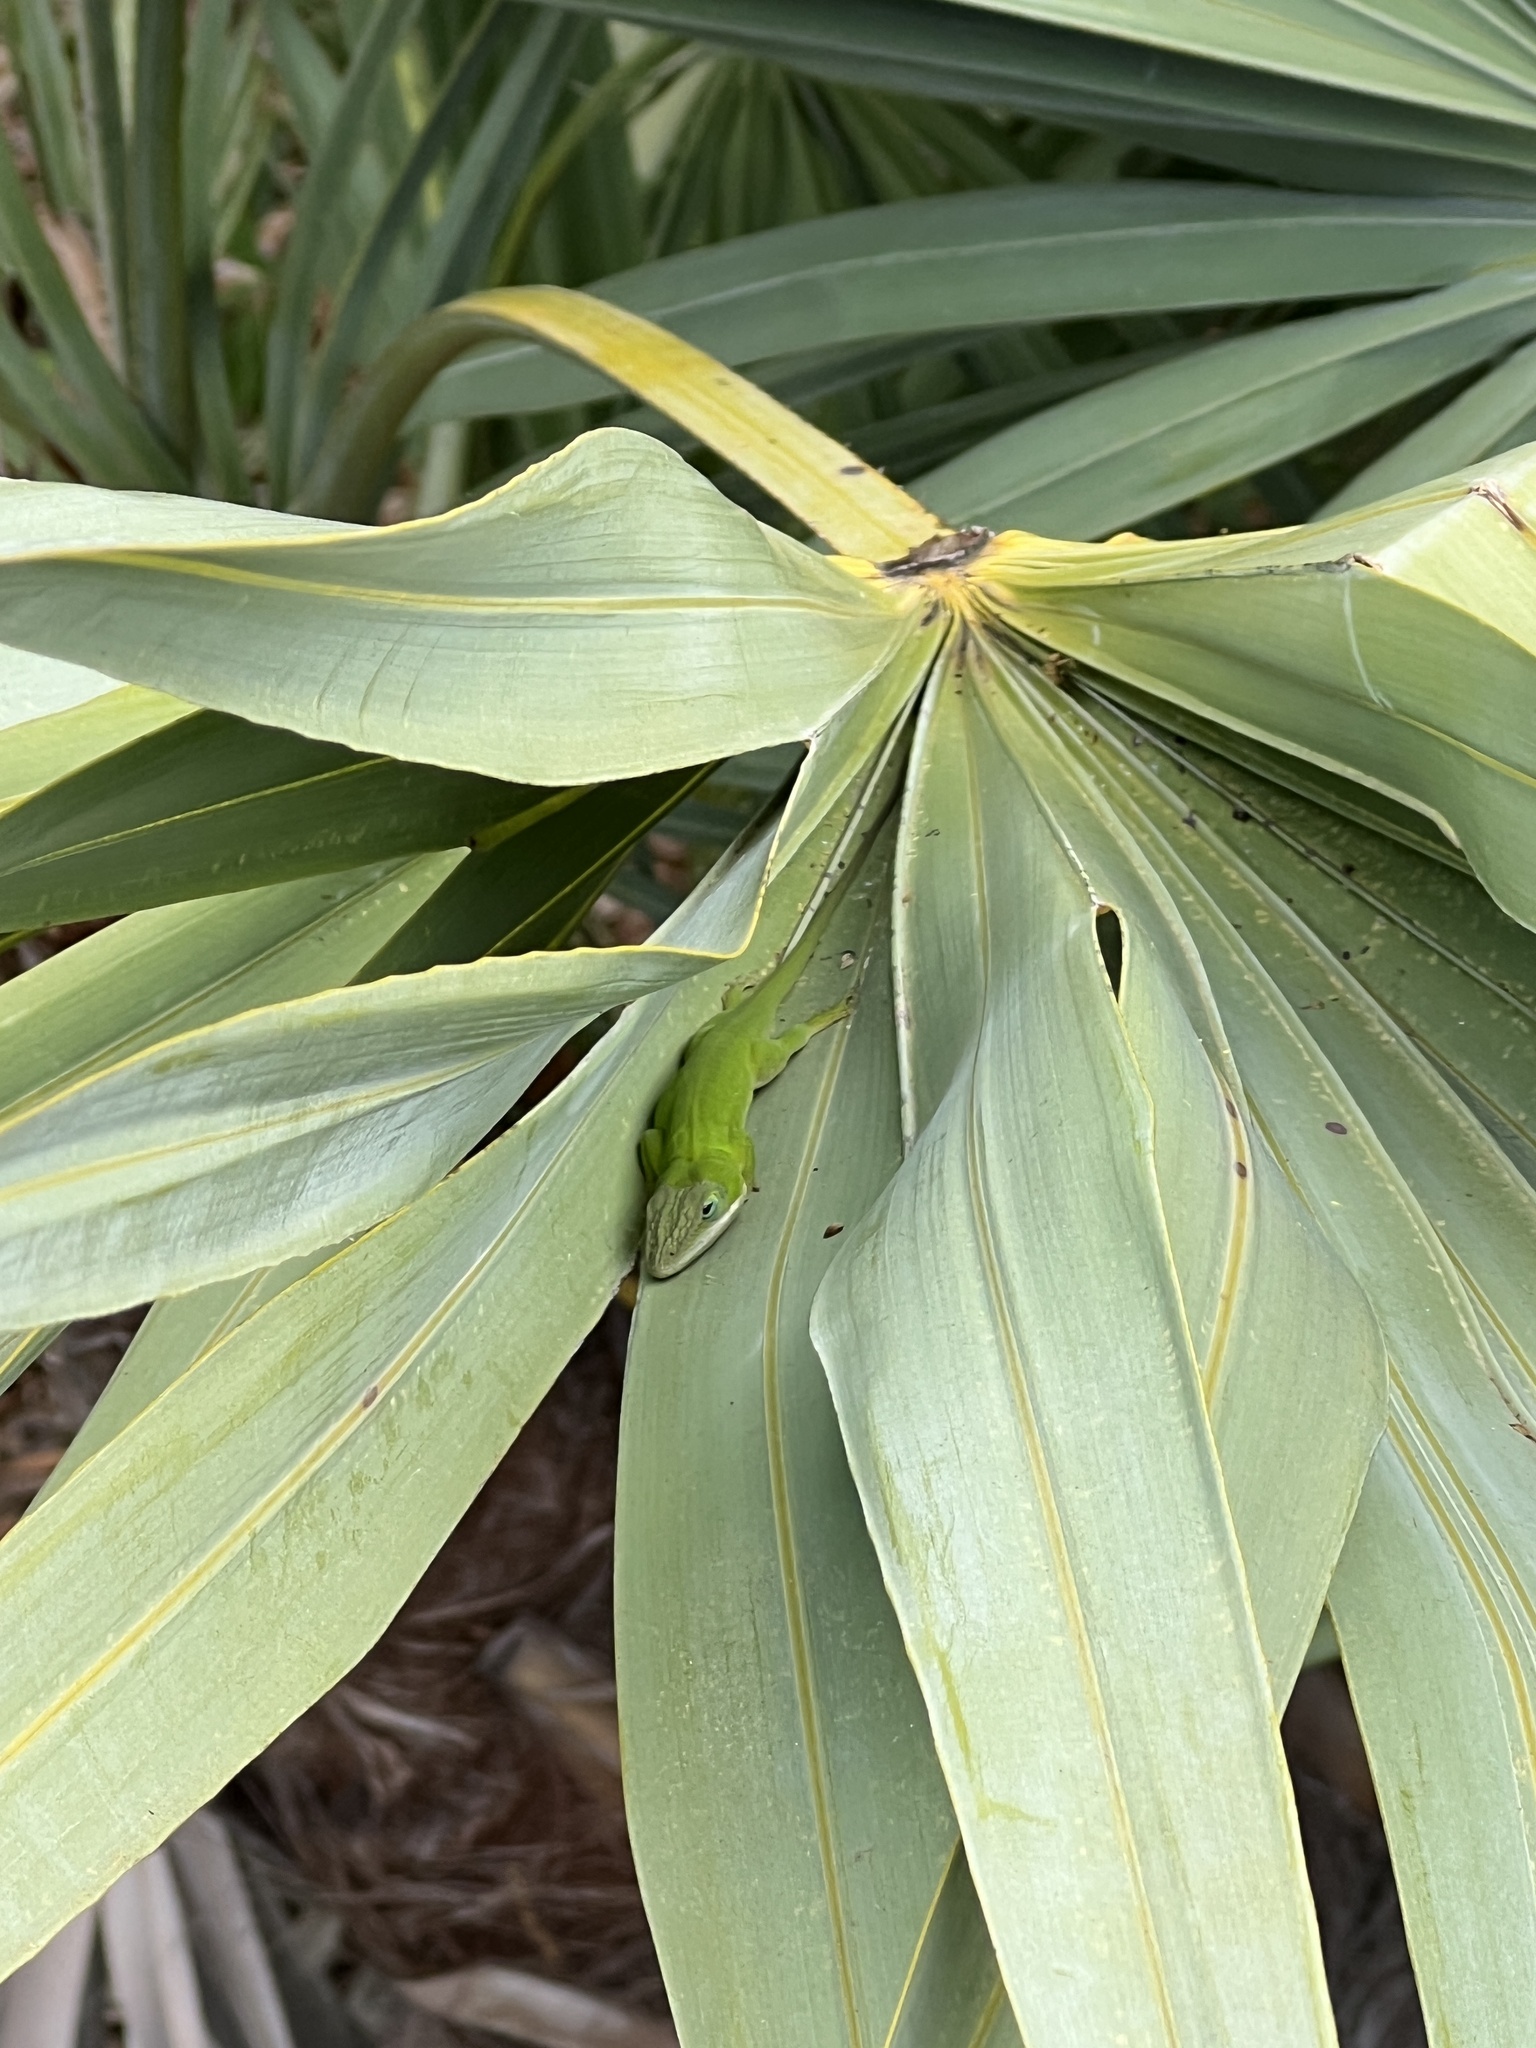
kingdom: Animalia
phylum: Chordata
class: Squamata
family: Dactyloidae
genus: Anolis
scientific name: Anolis carolinensis
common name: Green anole
